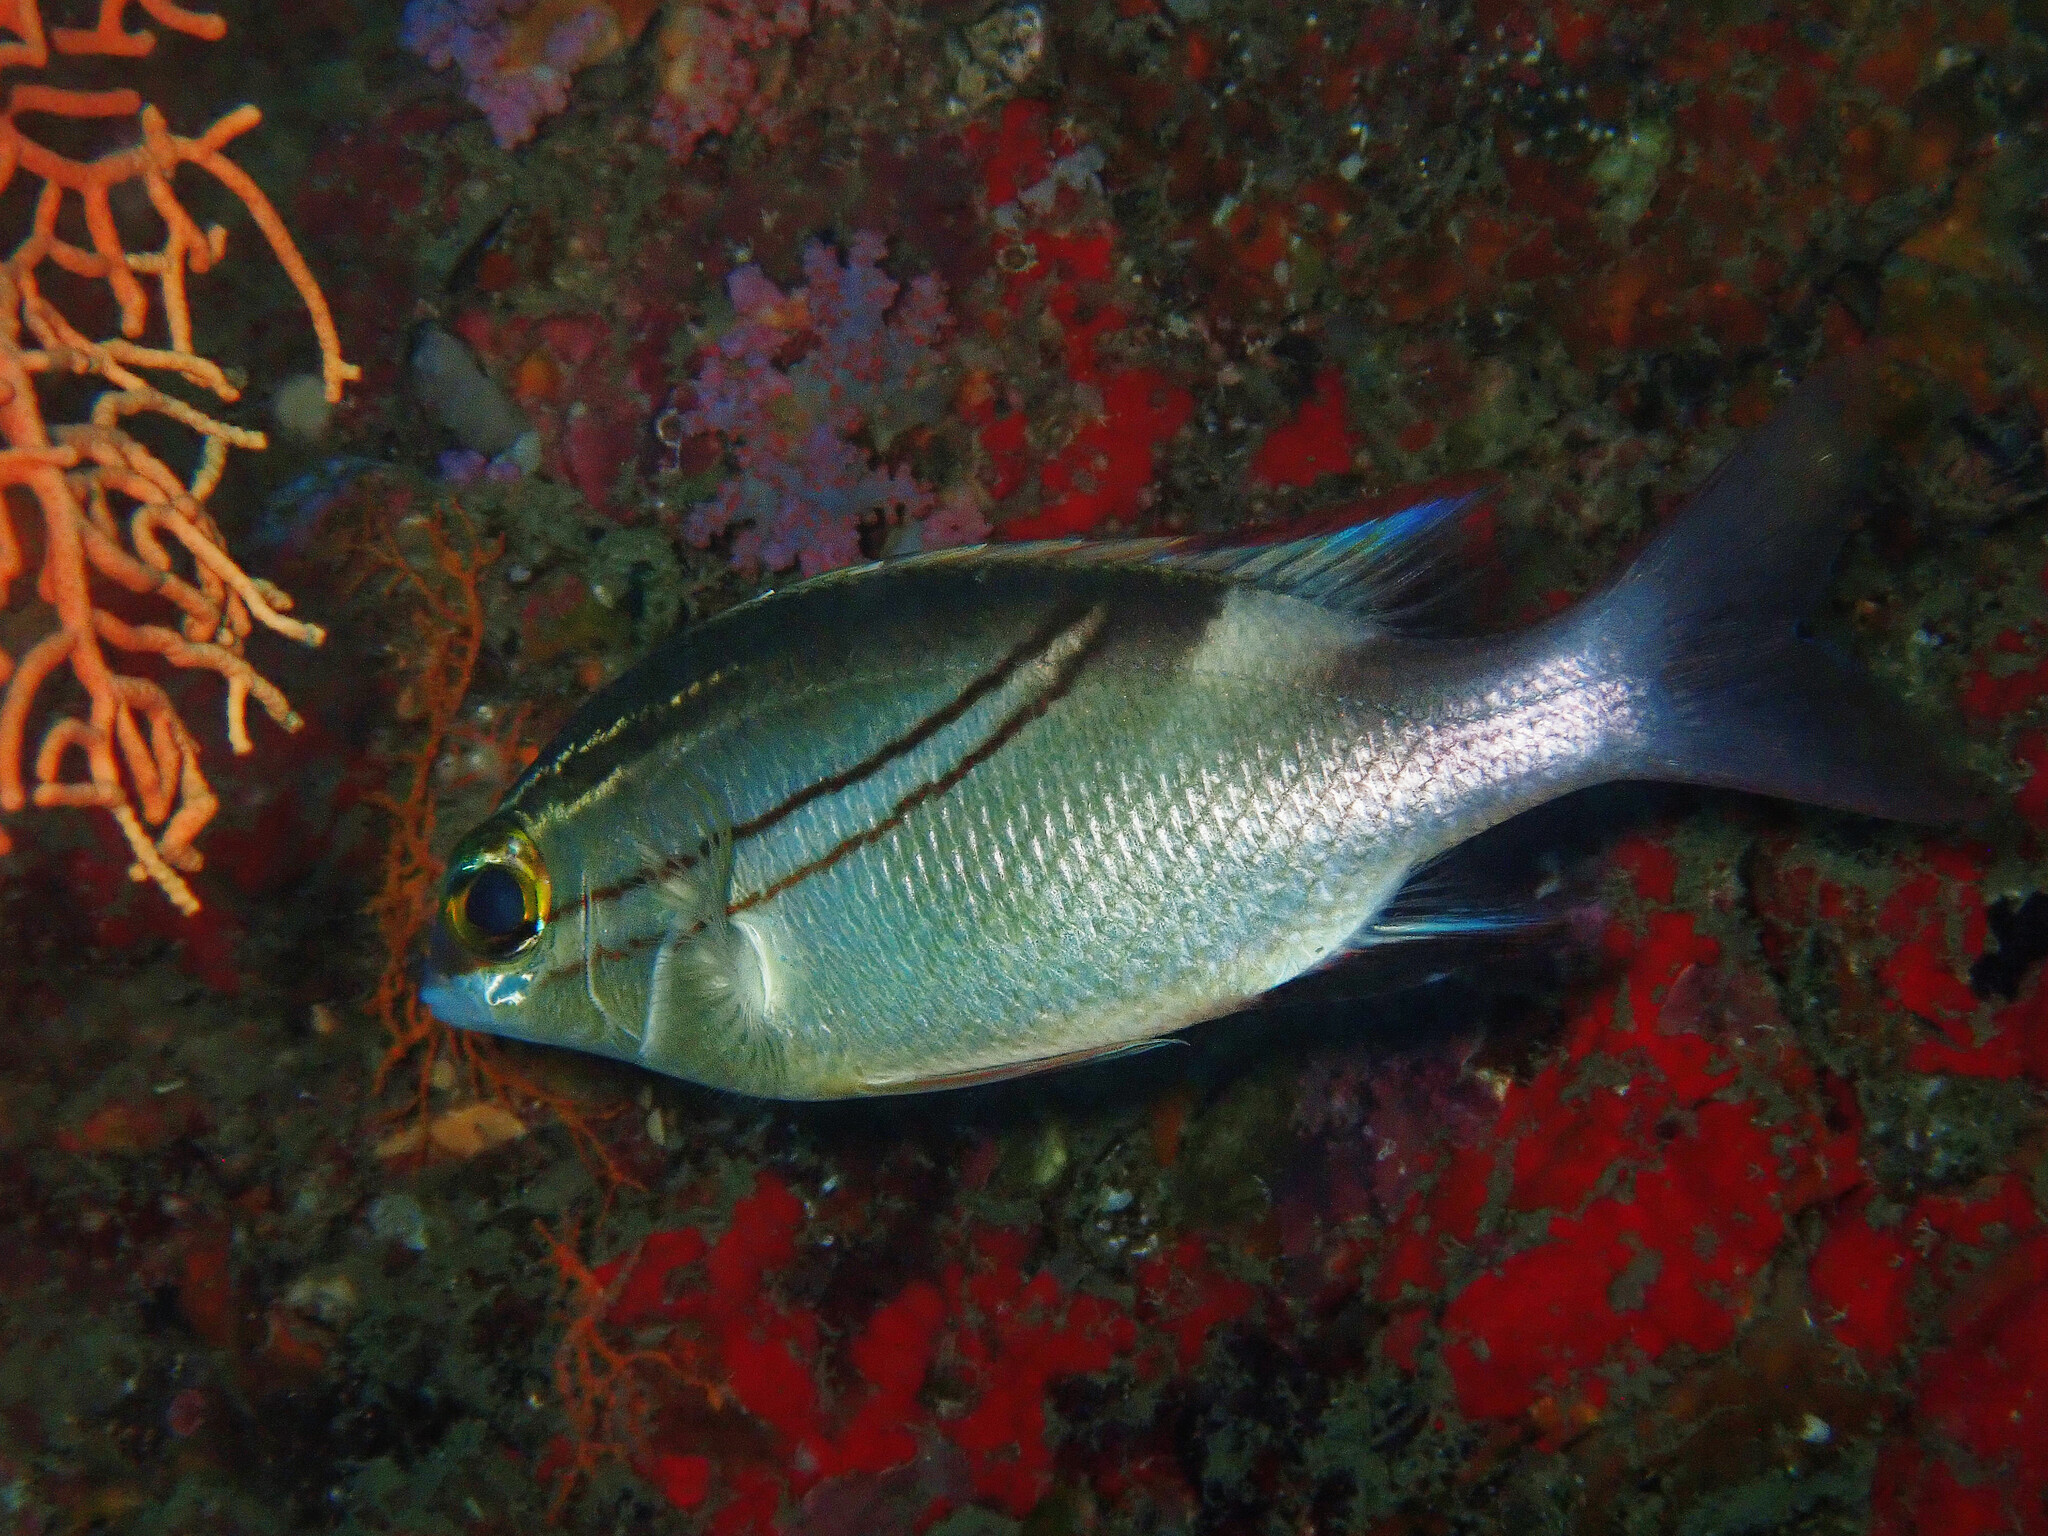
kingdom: Animalia
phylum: Chordata
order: Perciformes
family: Nemipteridae
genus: Scolopsis
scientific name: Scolopsis bilineata
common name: Two-lined monocle bream
